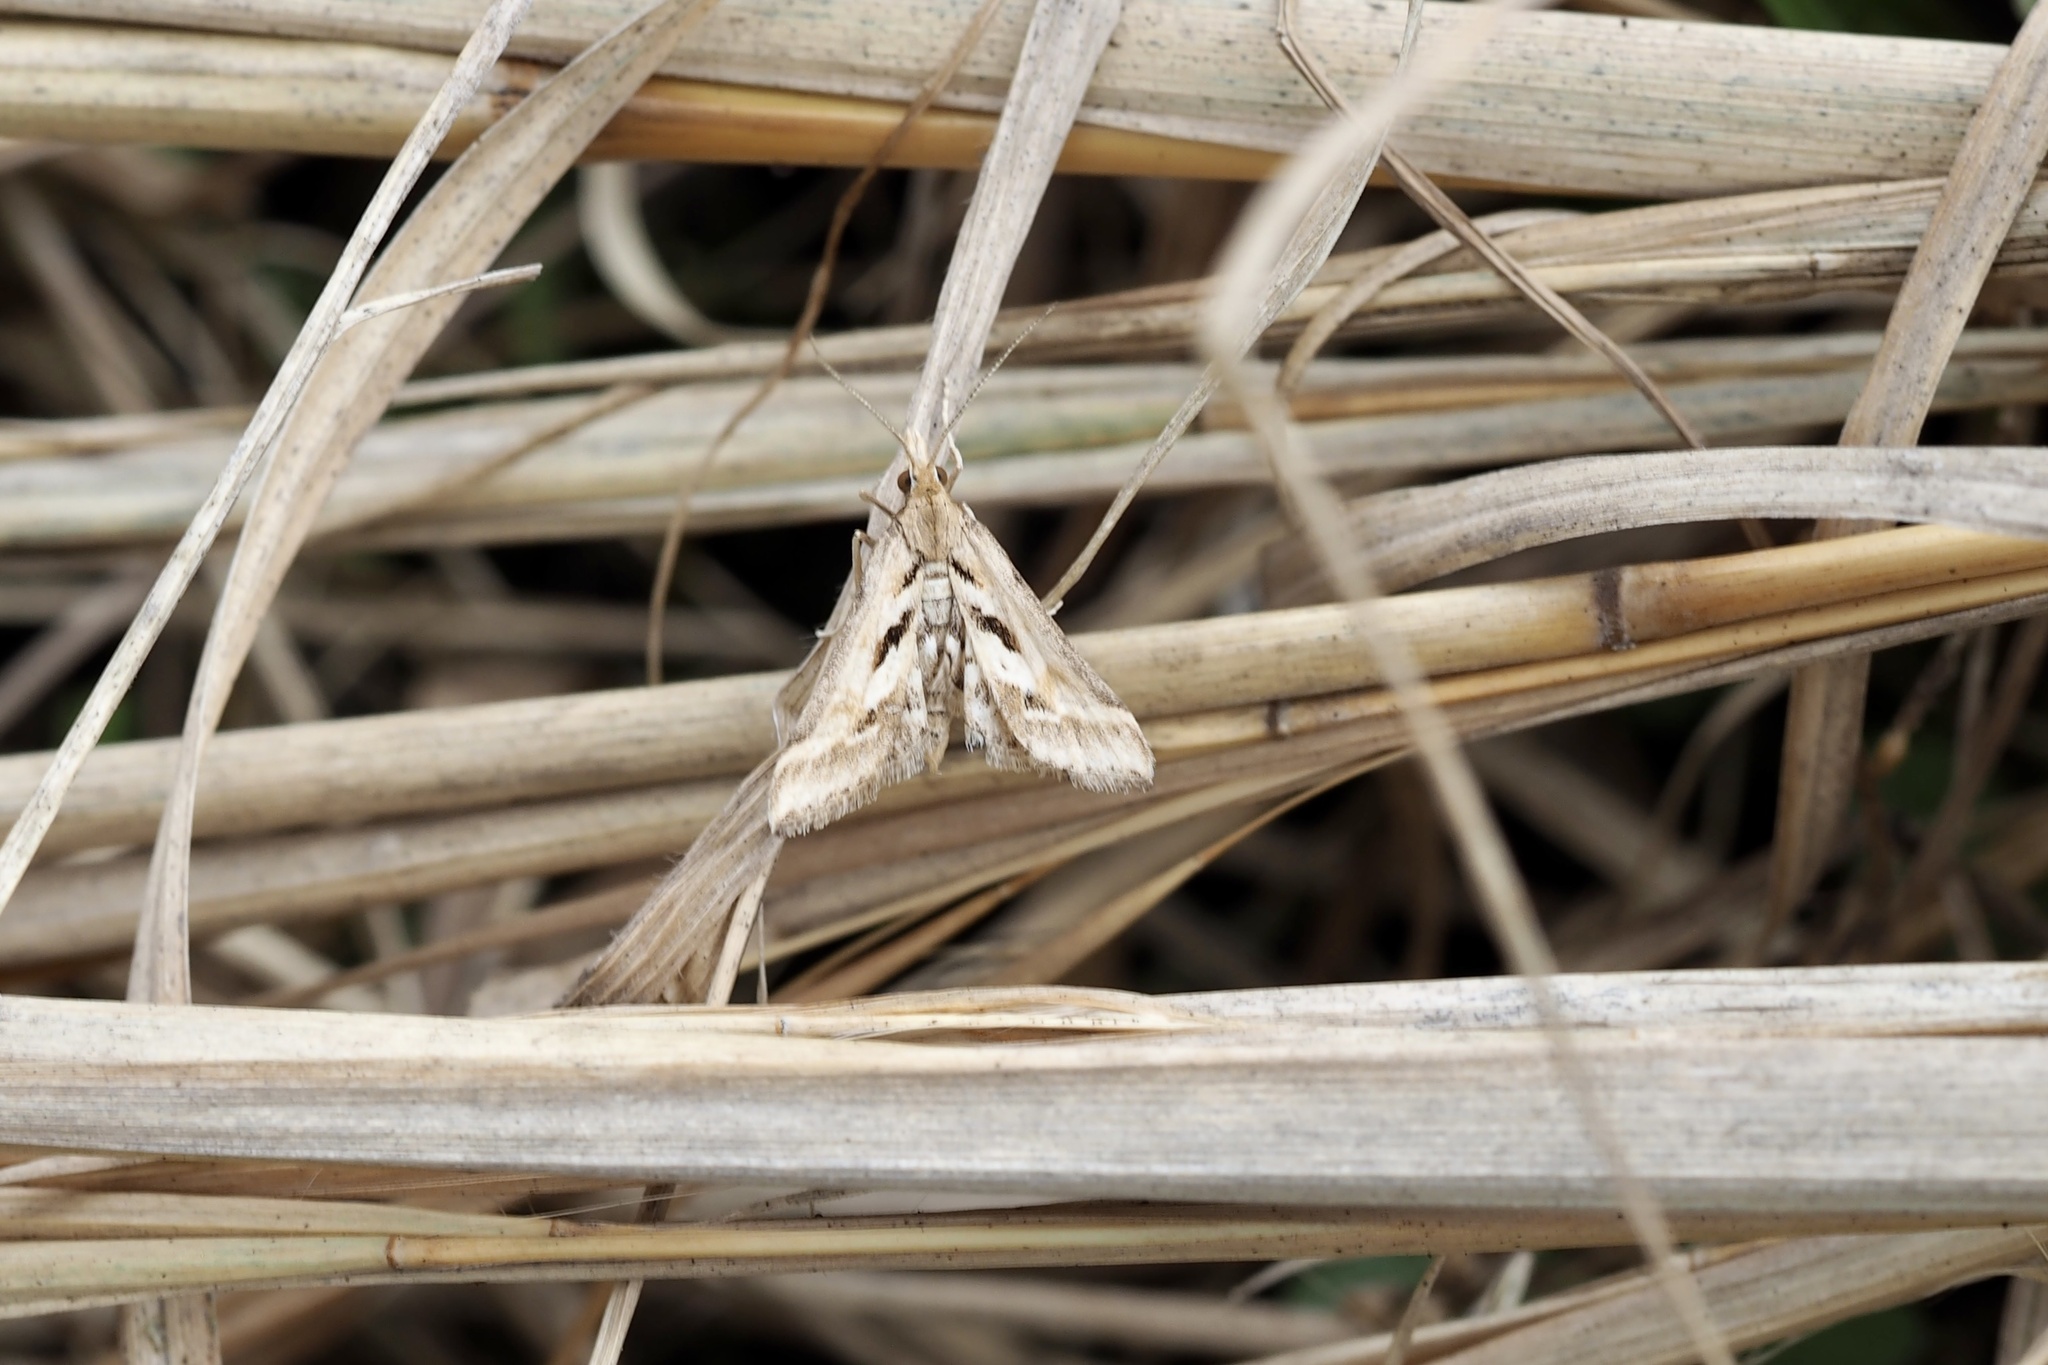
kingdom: Animalia
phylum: Arthropoda
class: Insecta
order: Lepidoptera
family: Crambidae
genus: Diasemia
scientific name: Diasemia accalis
